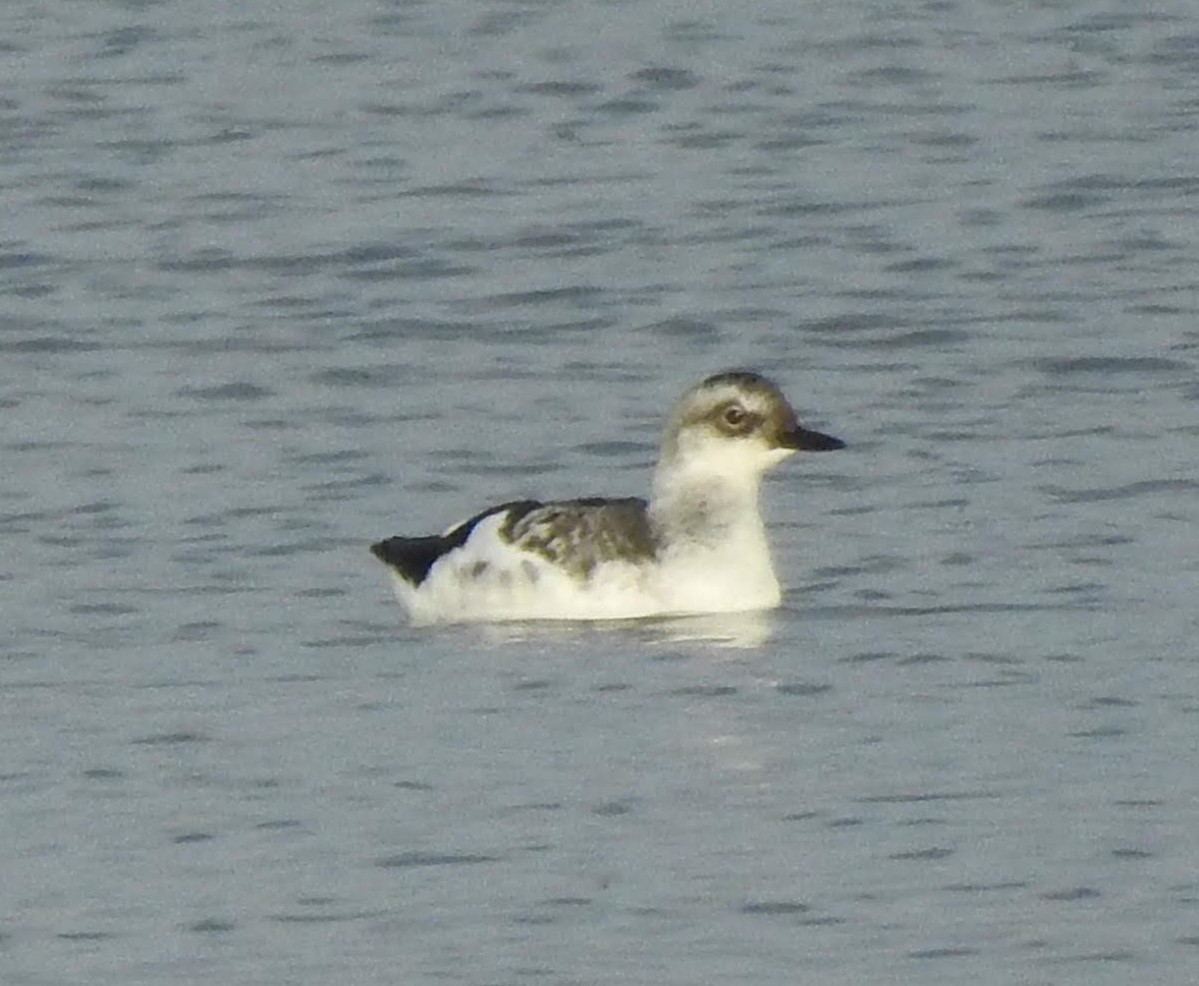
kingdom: Animalia
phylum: Chordata
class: Aves
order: Charadriiformes
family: Alcidae
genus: Cepphus
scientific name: Cepphus columba
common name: Pigeon guillemot
